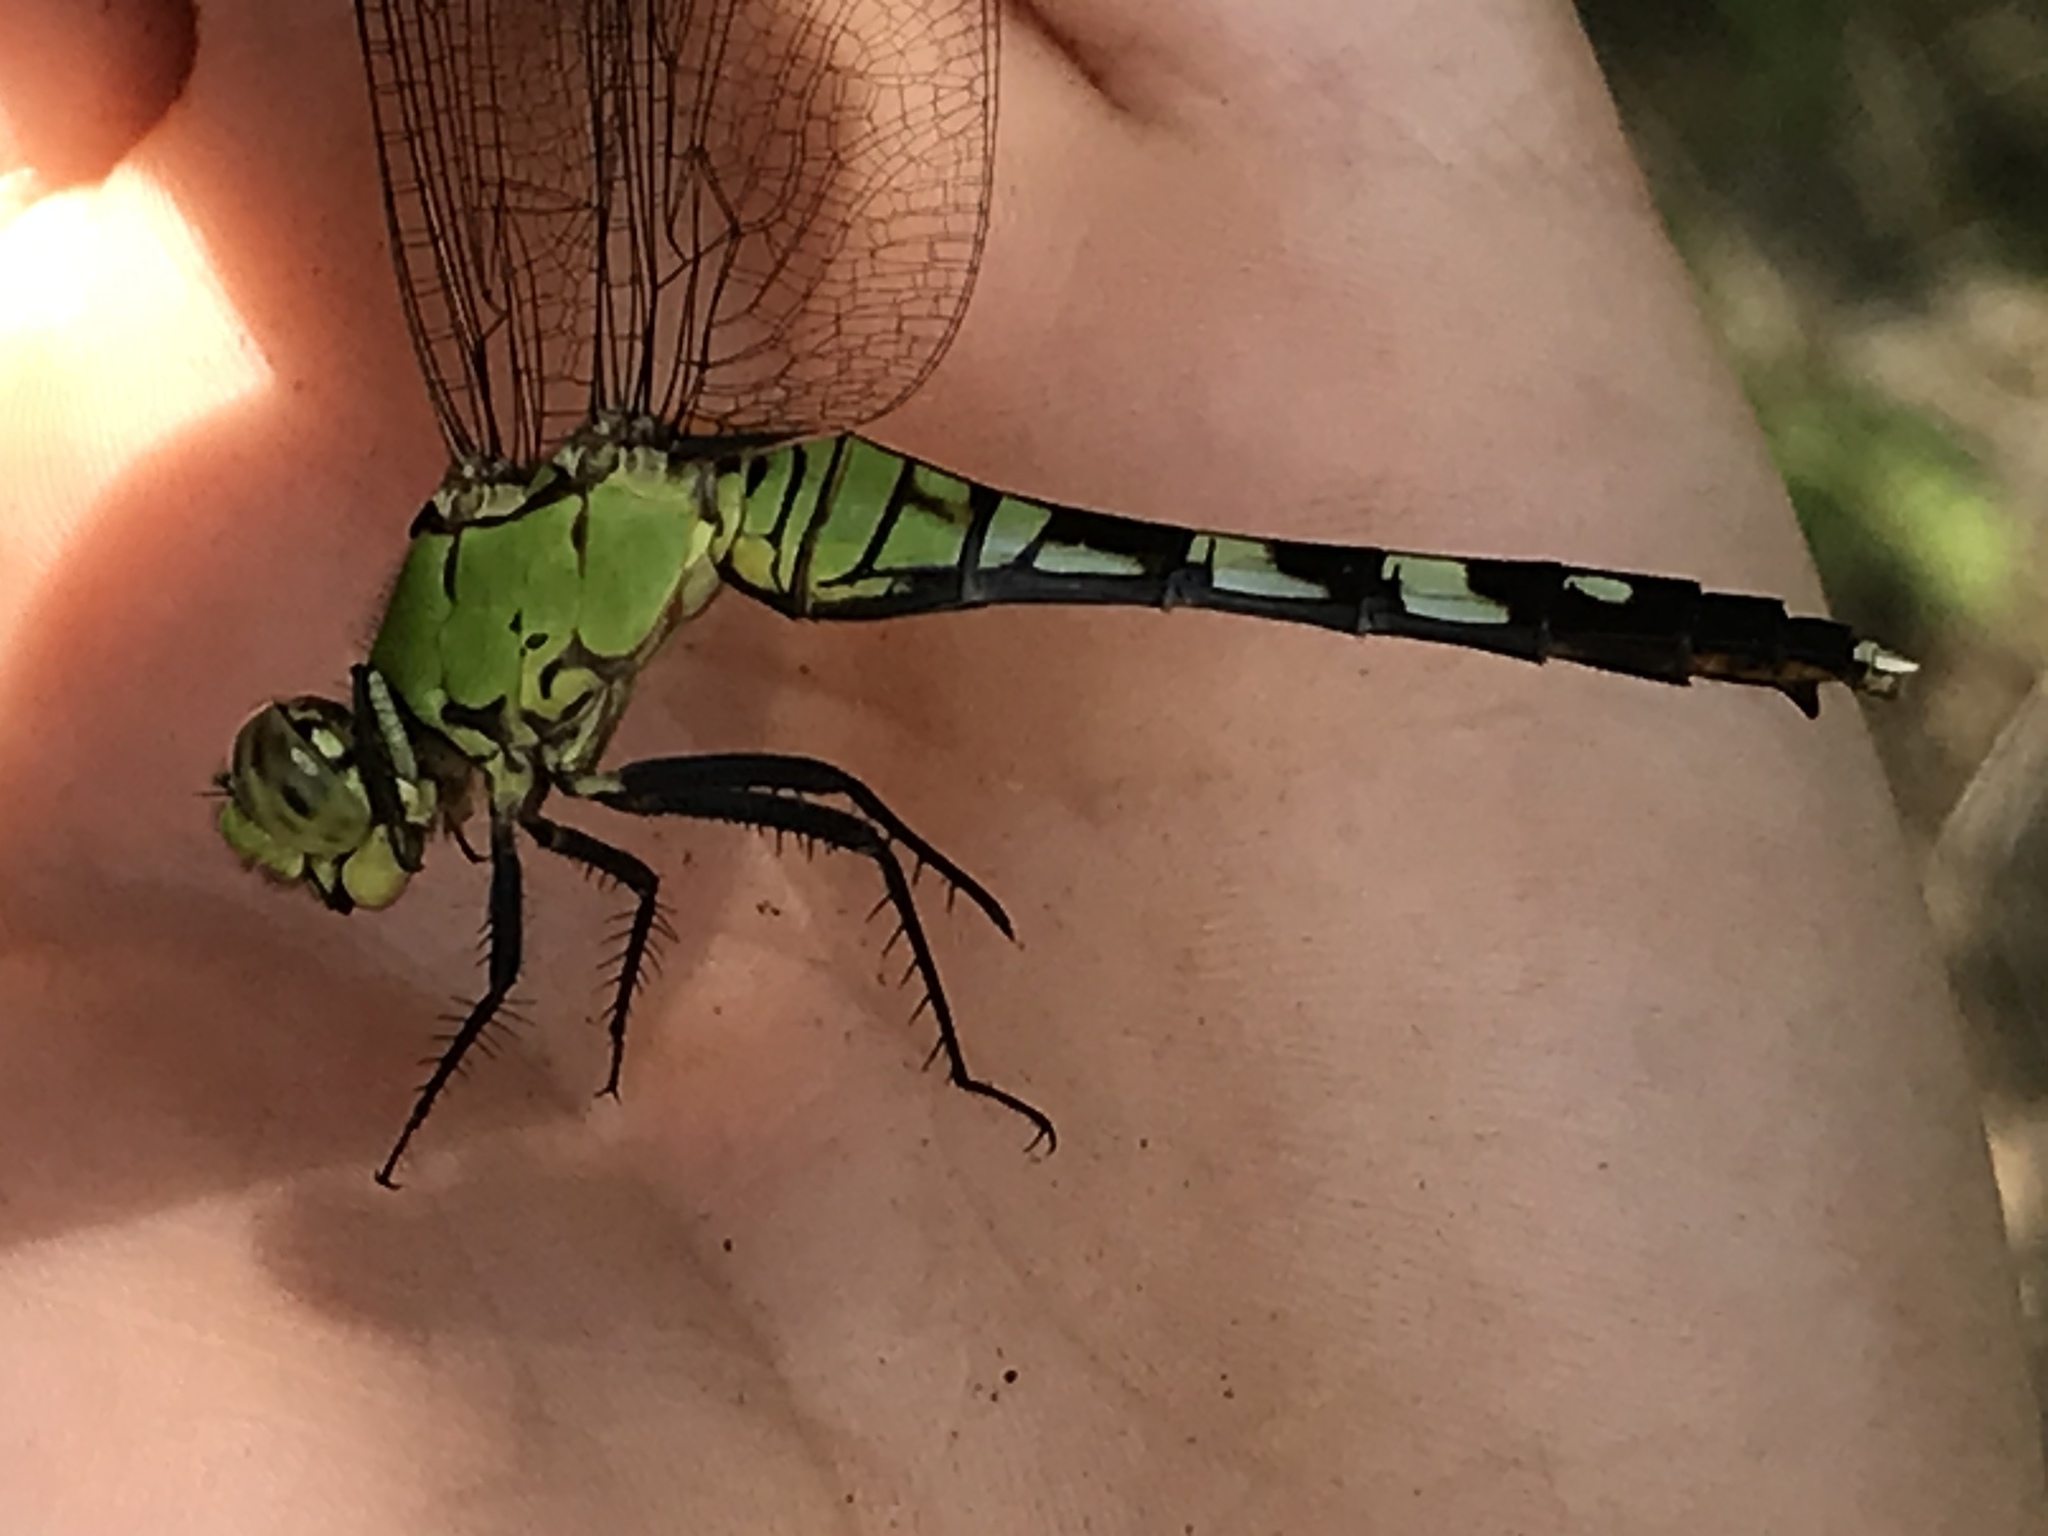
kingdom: Animalia
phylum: Arthropoda
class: Insecta
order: Odonata
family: Libellulidae
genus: Erythemis
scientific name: Erythemis simplicicollis
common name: Eastern pondhawk
